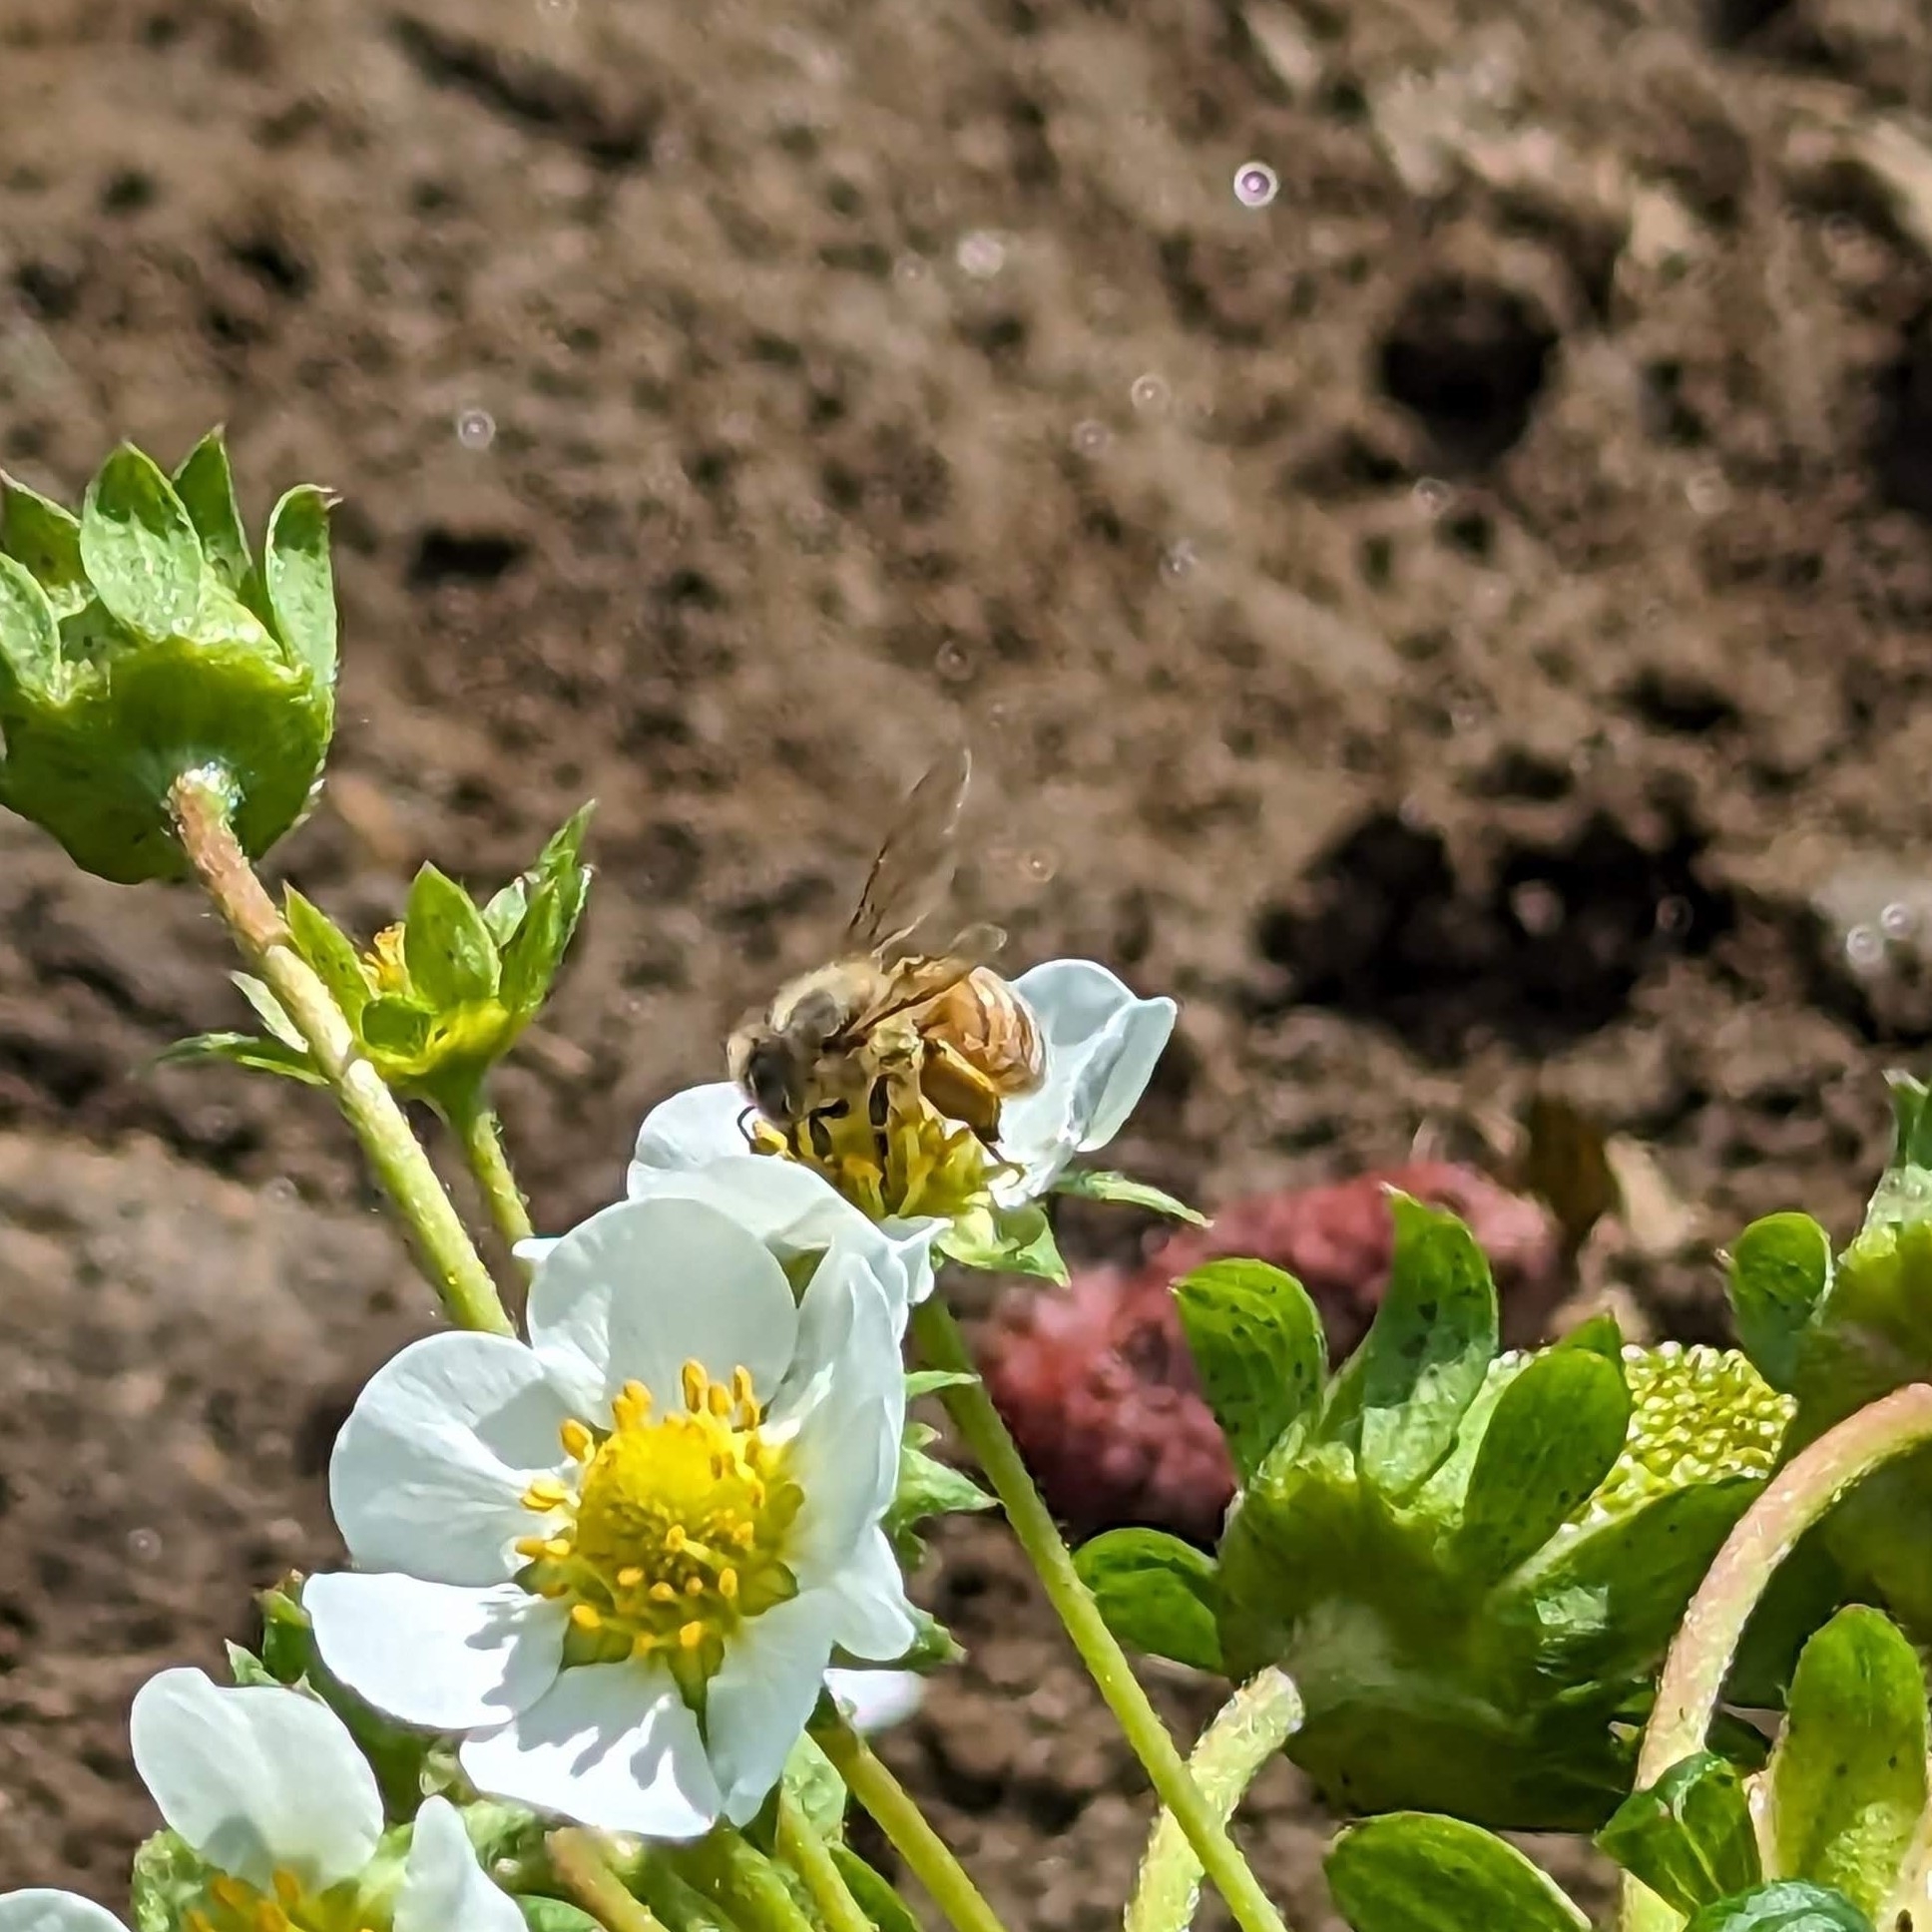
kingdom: Animalia
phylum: Arthropoda
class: Insecta
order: Hymenoptera
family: Apidae
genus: Apis
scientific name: Apis mellifera
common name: Honey bee
